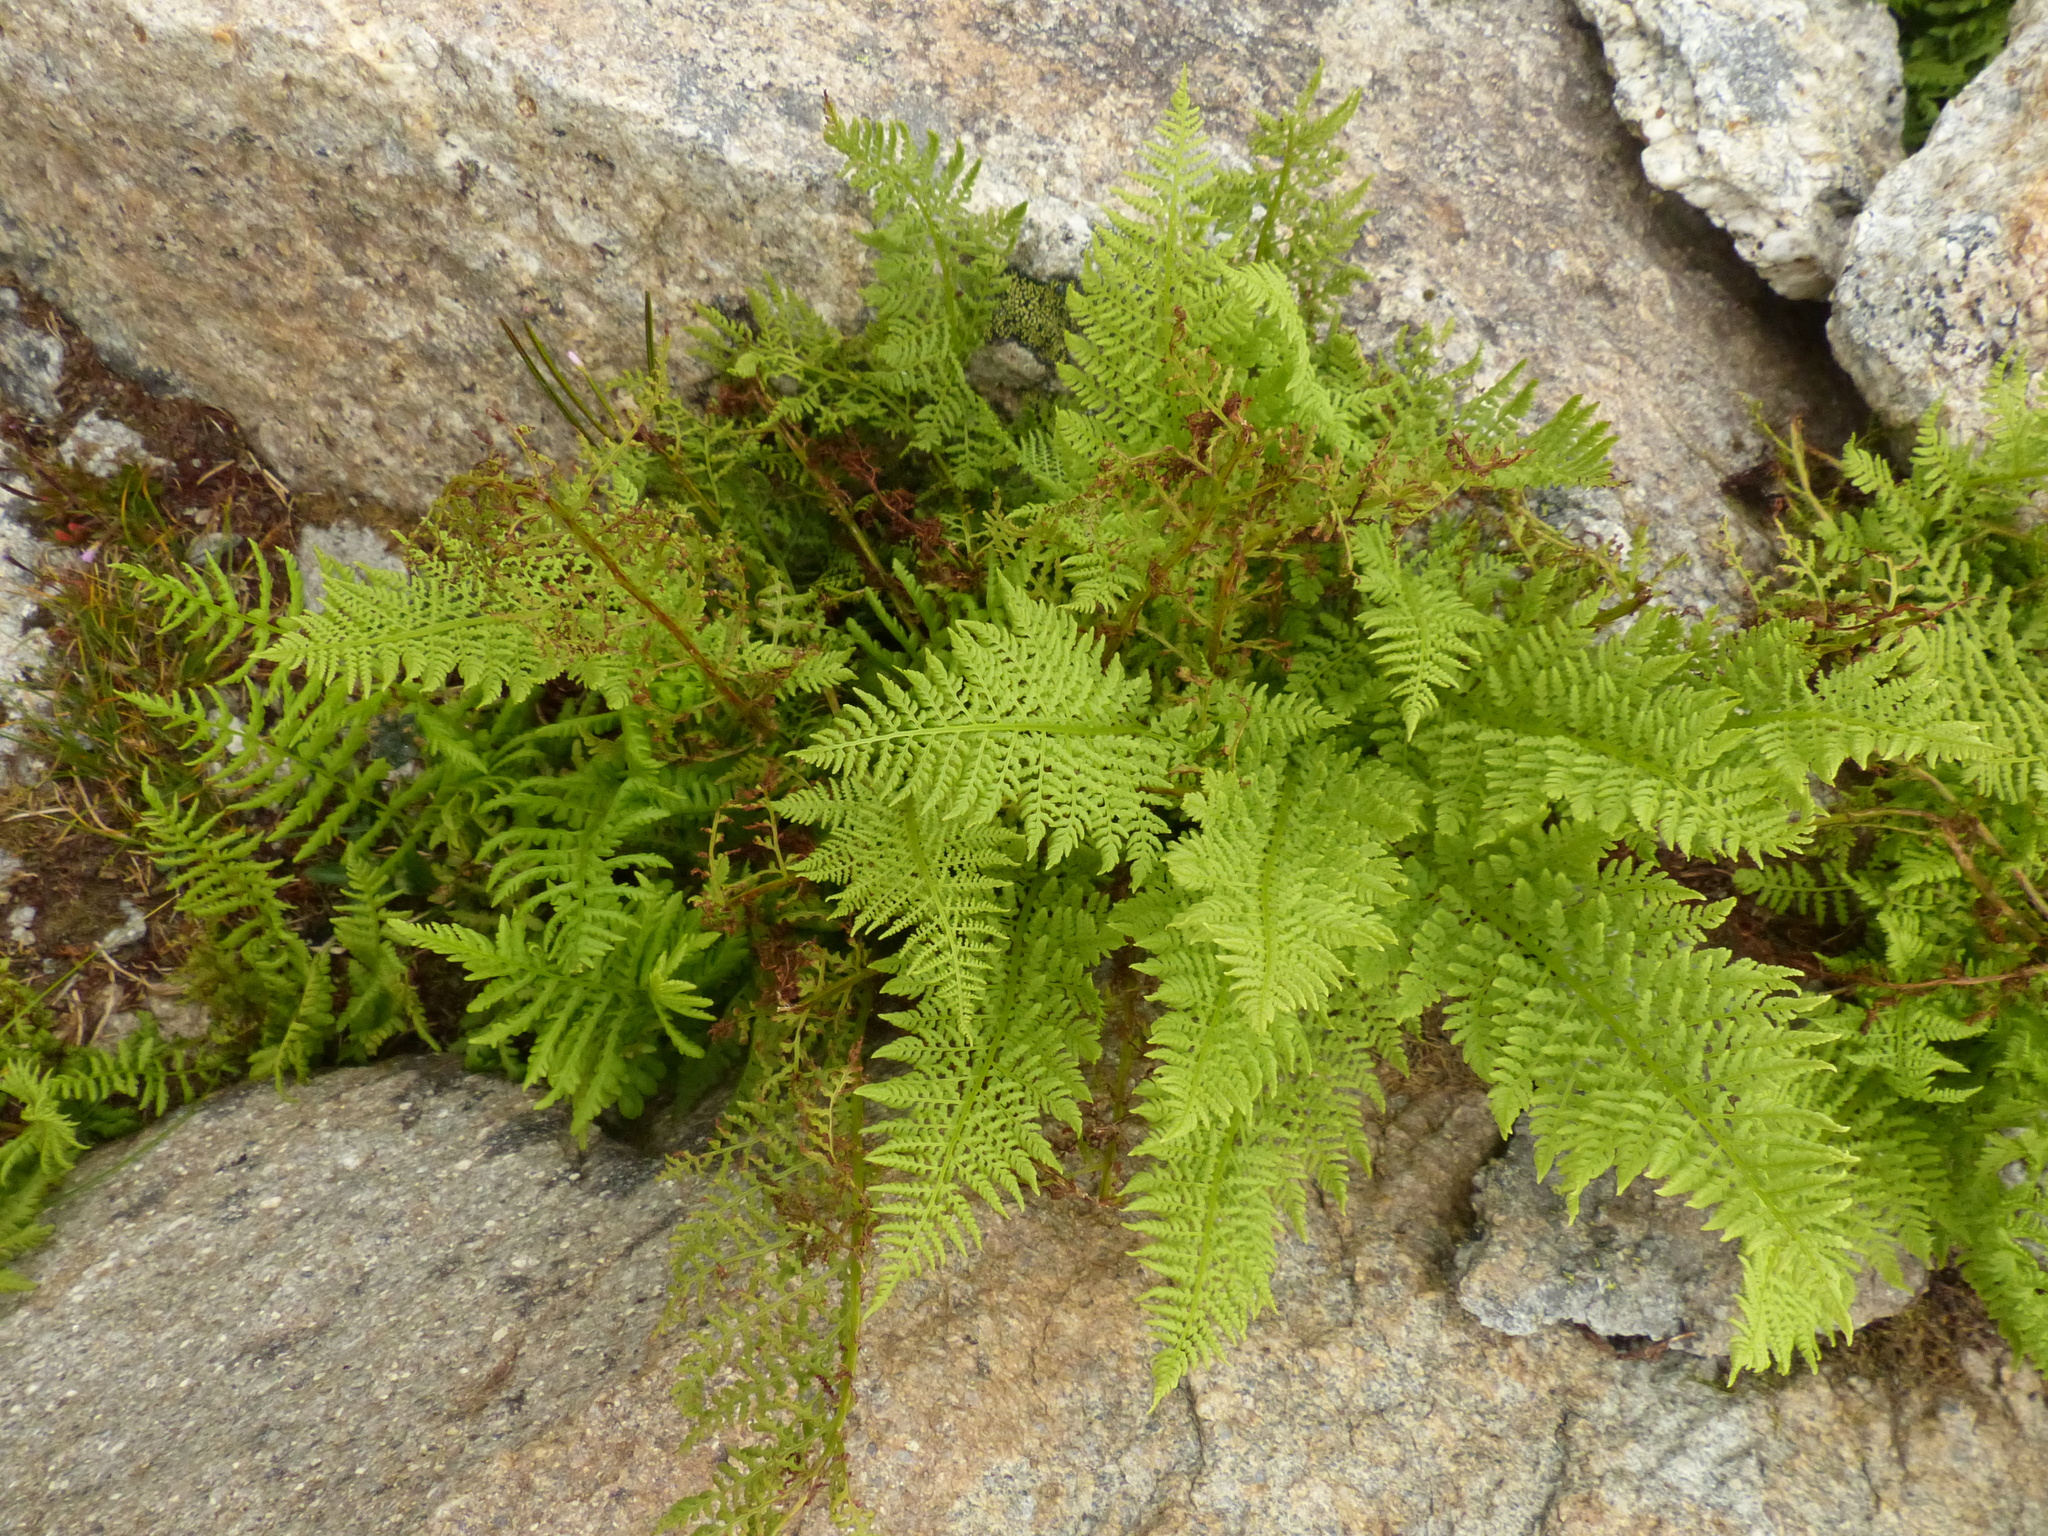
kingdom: Plantae
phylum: Tracheophyta
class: Polypodiopsida
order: Polypodiales
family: Athyriaceae
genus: Athyrium
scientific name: Athyrium americanum
